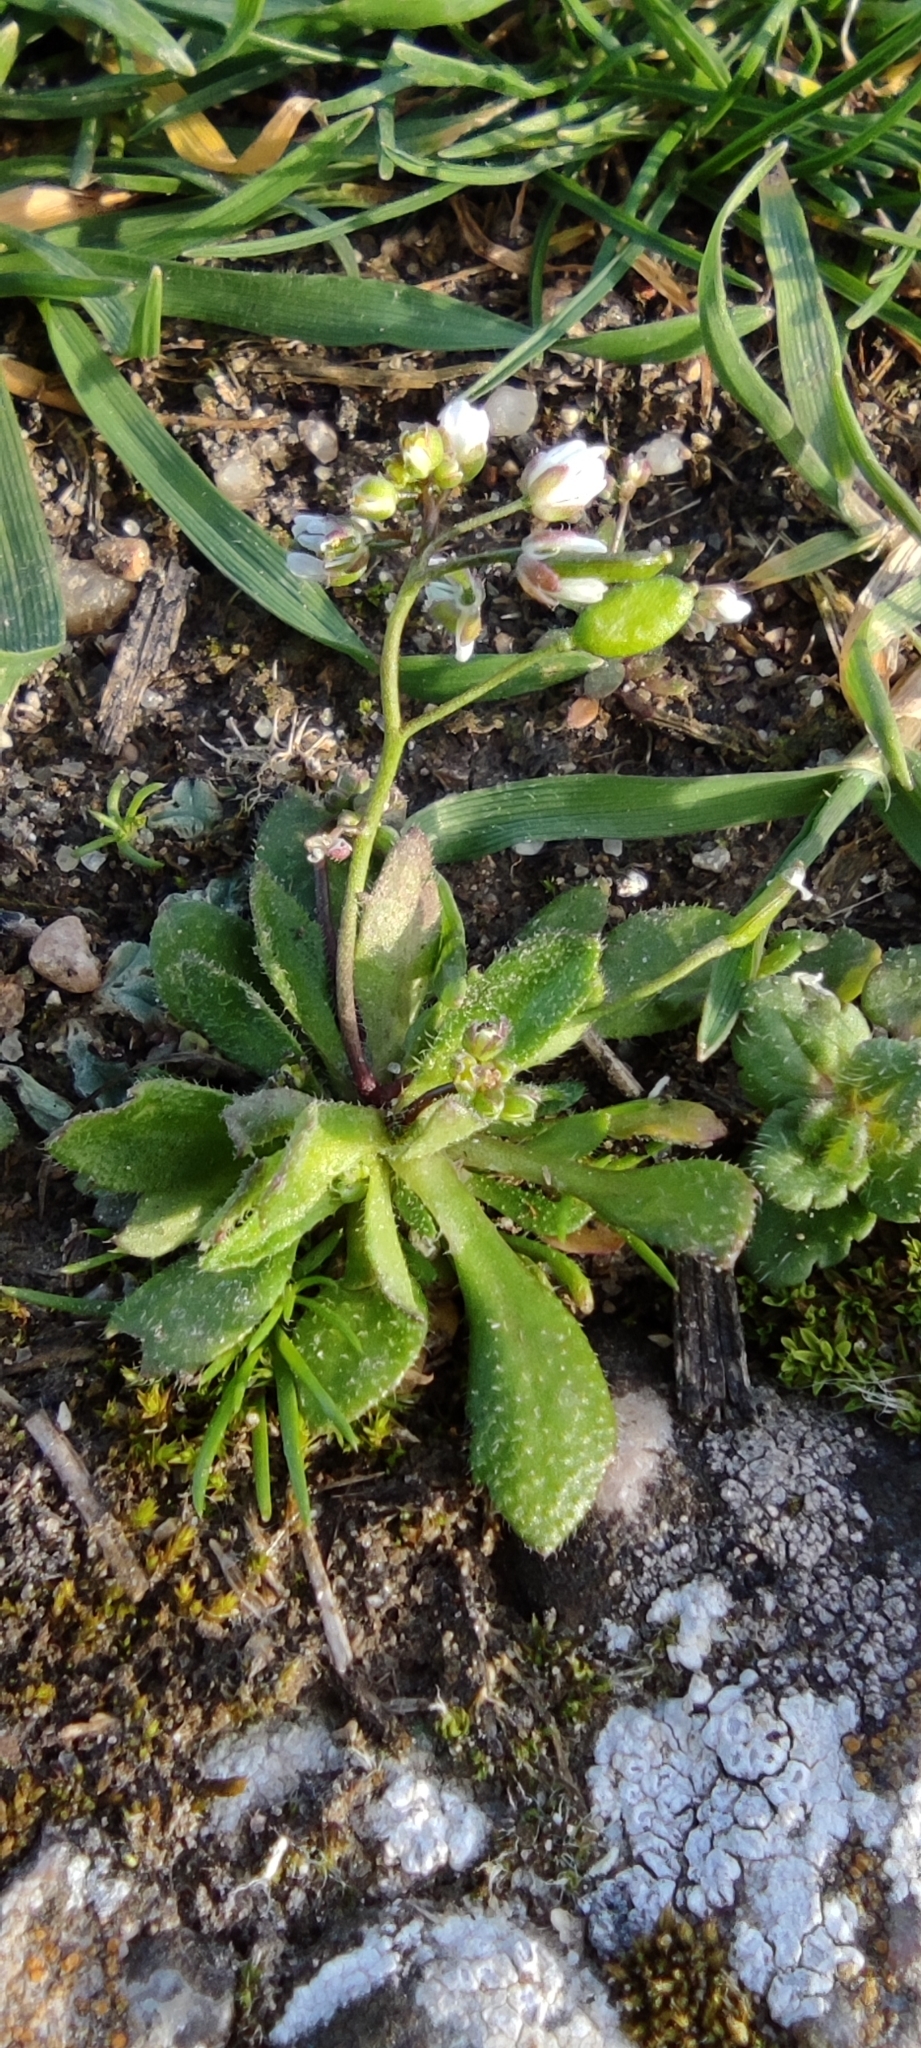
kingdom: Plantae
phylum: Tracheophyta
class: Magnoliopsida
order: Brassicales
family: Brassicaceae
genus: Draba
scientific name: Draba verna
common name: Spring draba
